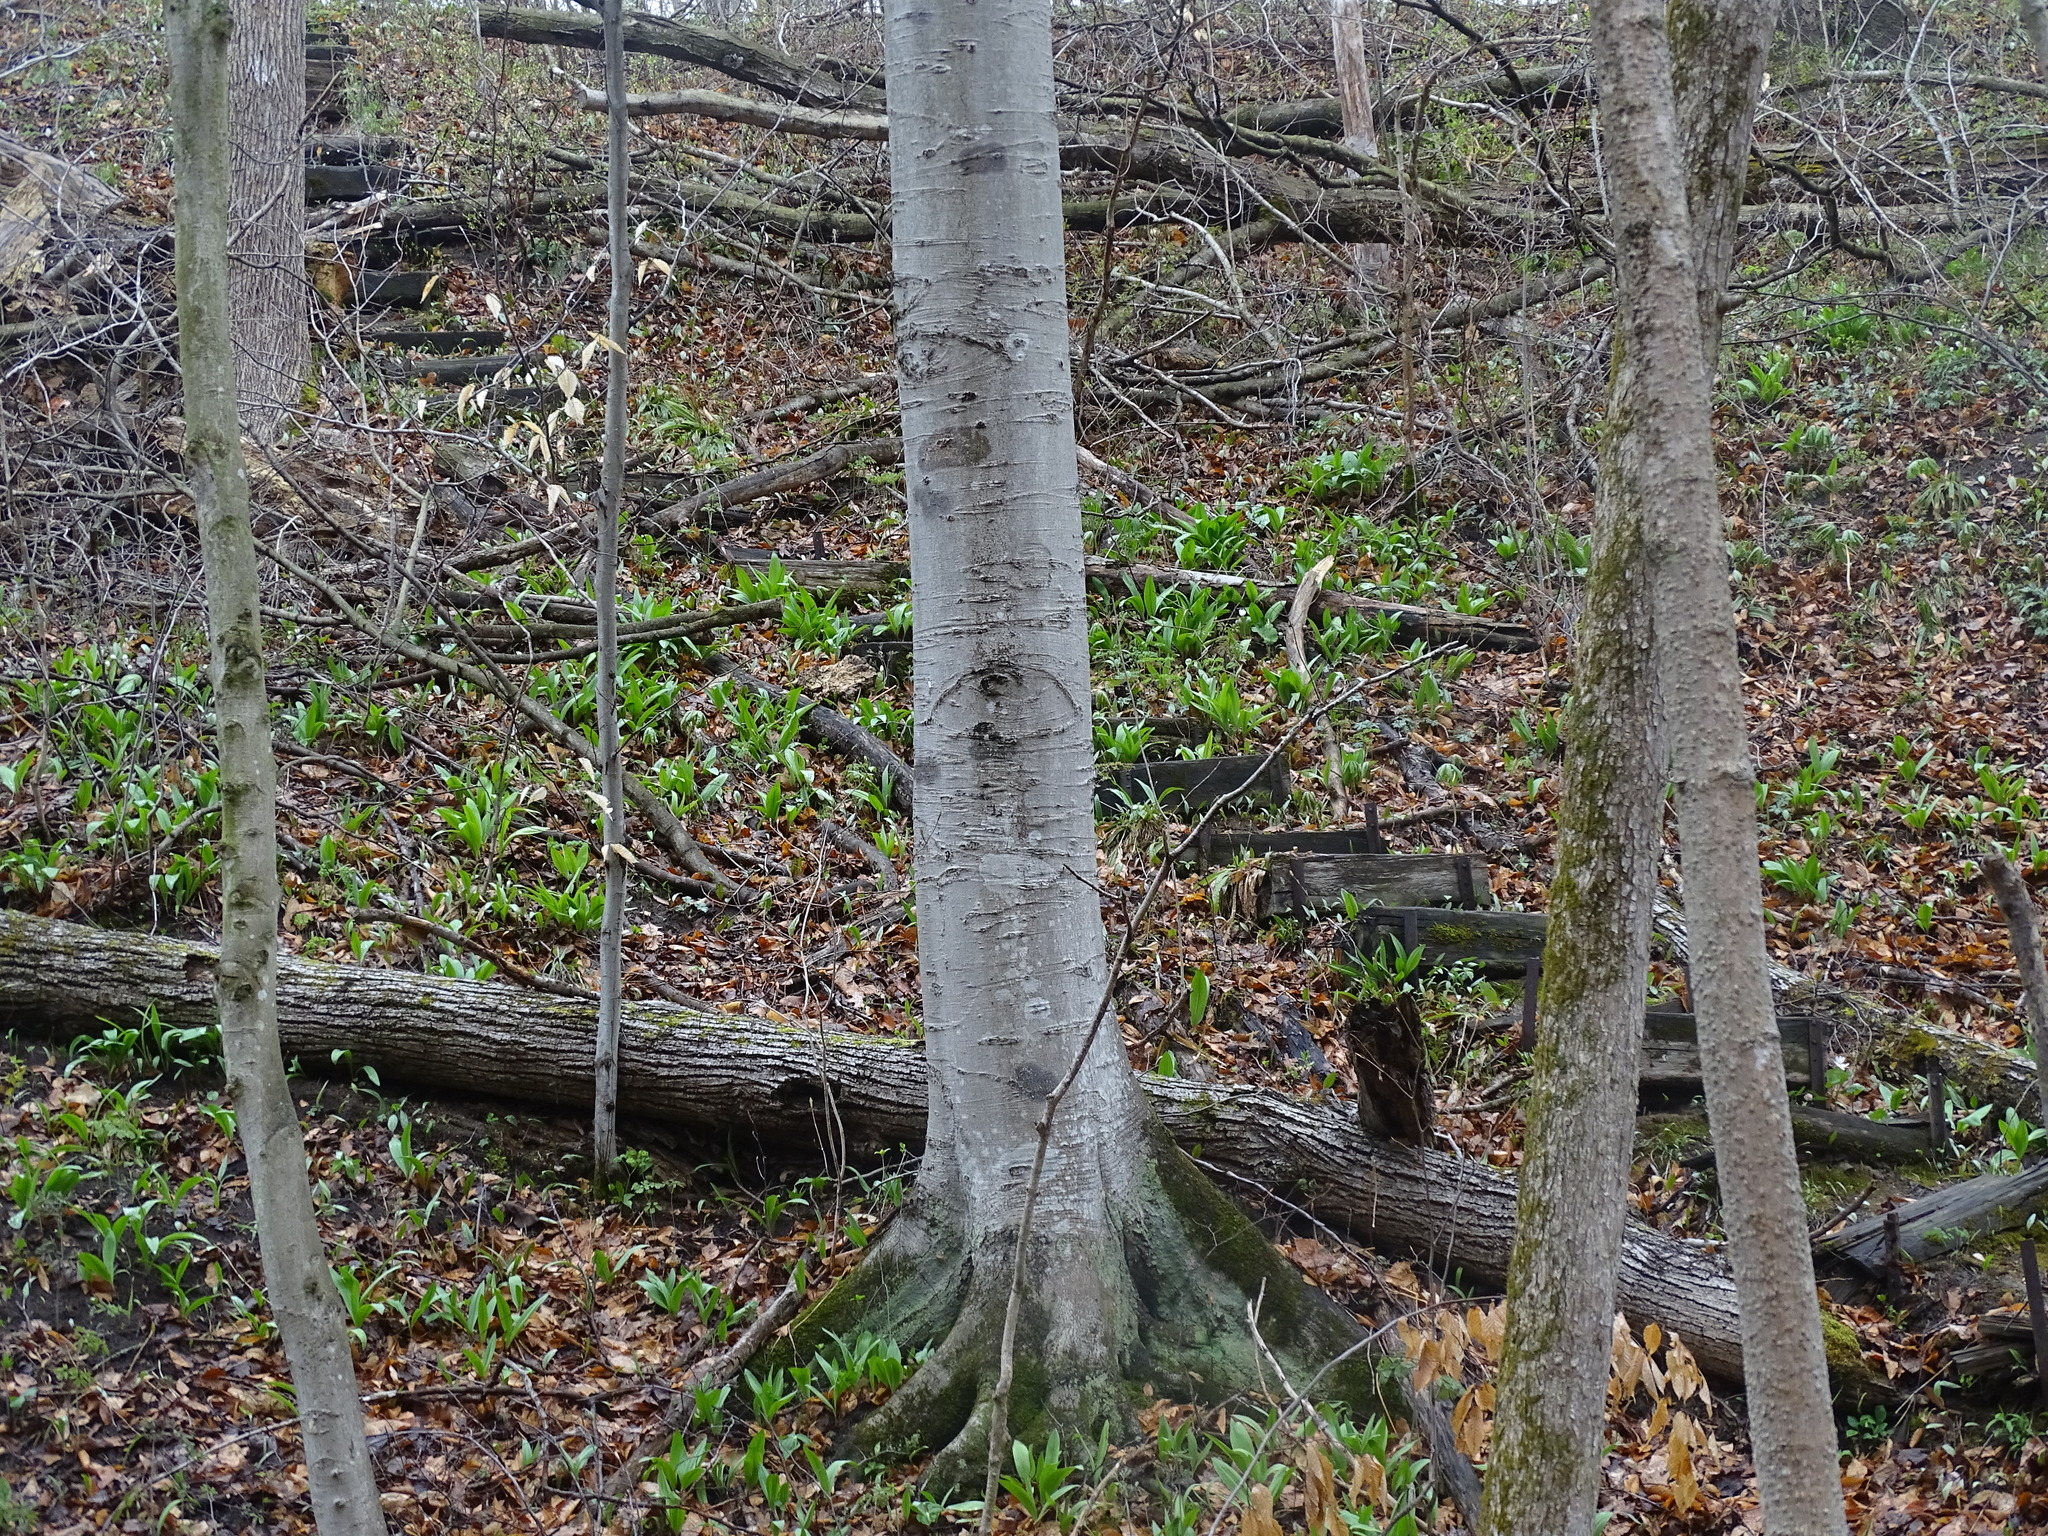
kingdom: Plantae
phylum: Tracheophyta
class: Magnoliopsida
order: Fagales
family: Fagaceae
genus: Fagus
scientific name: Fagus grandifolia
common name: American beech
